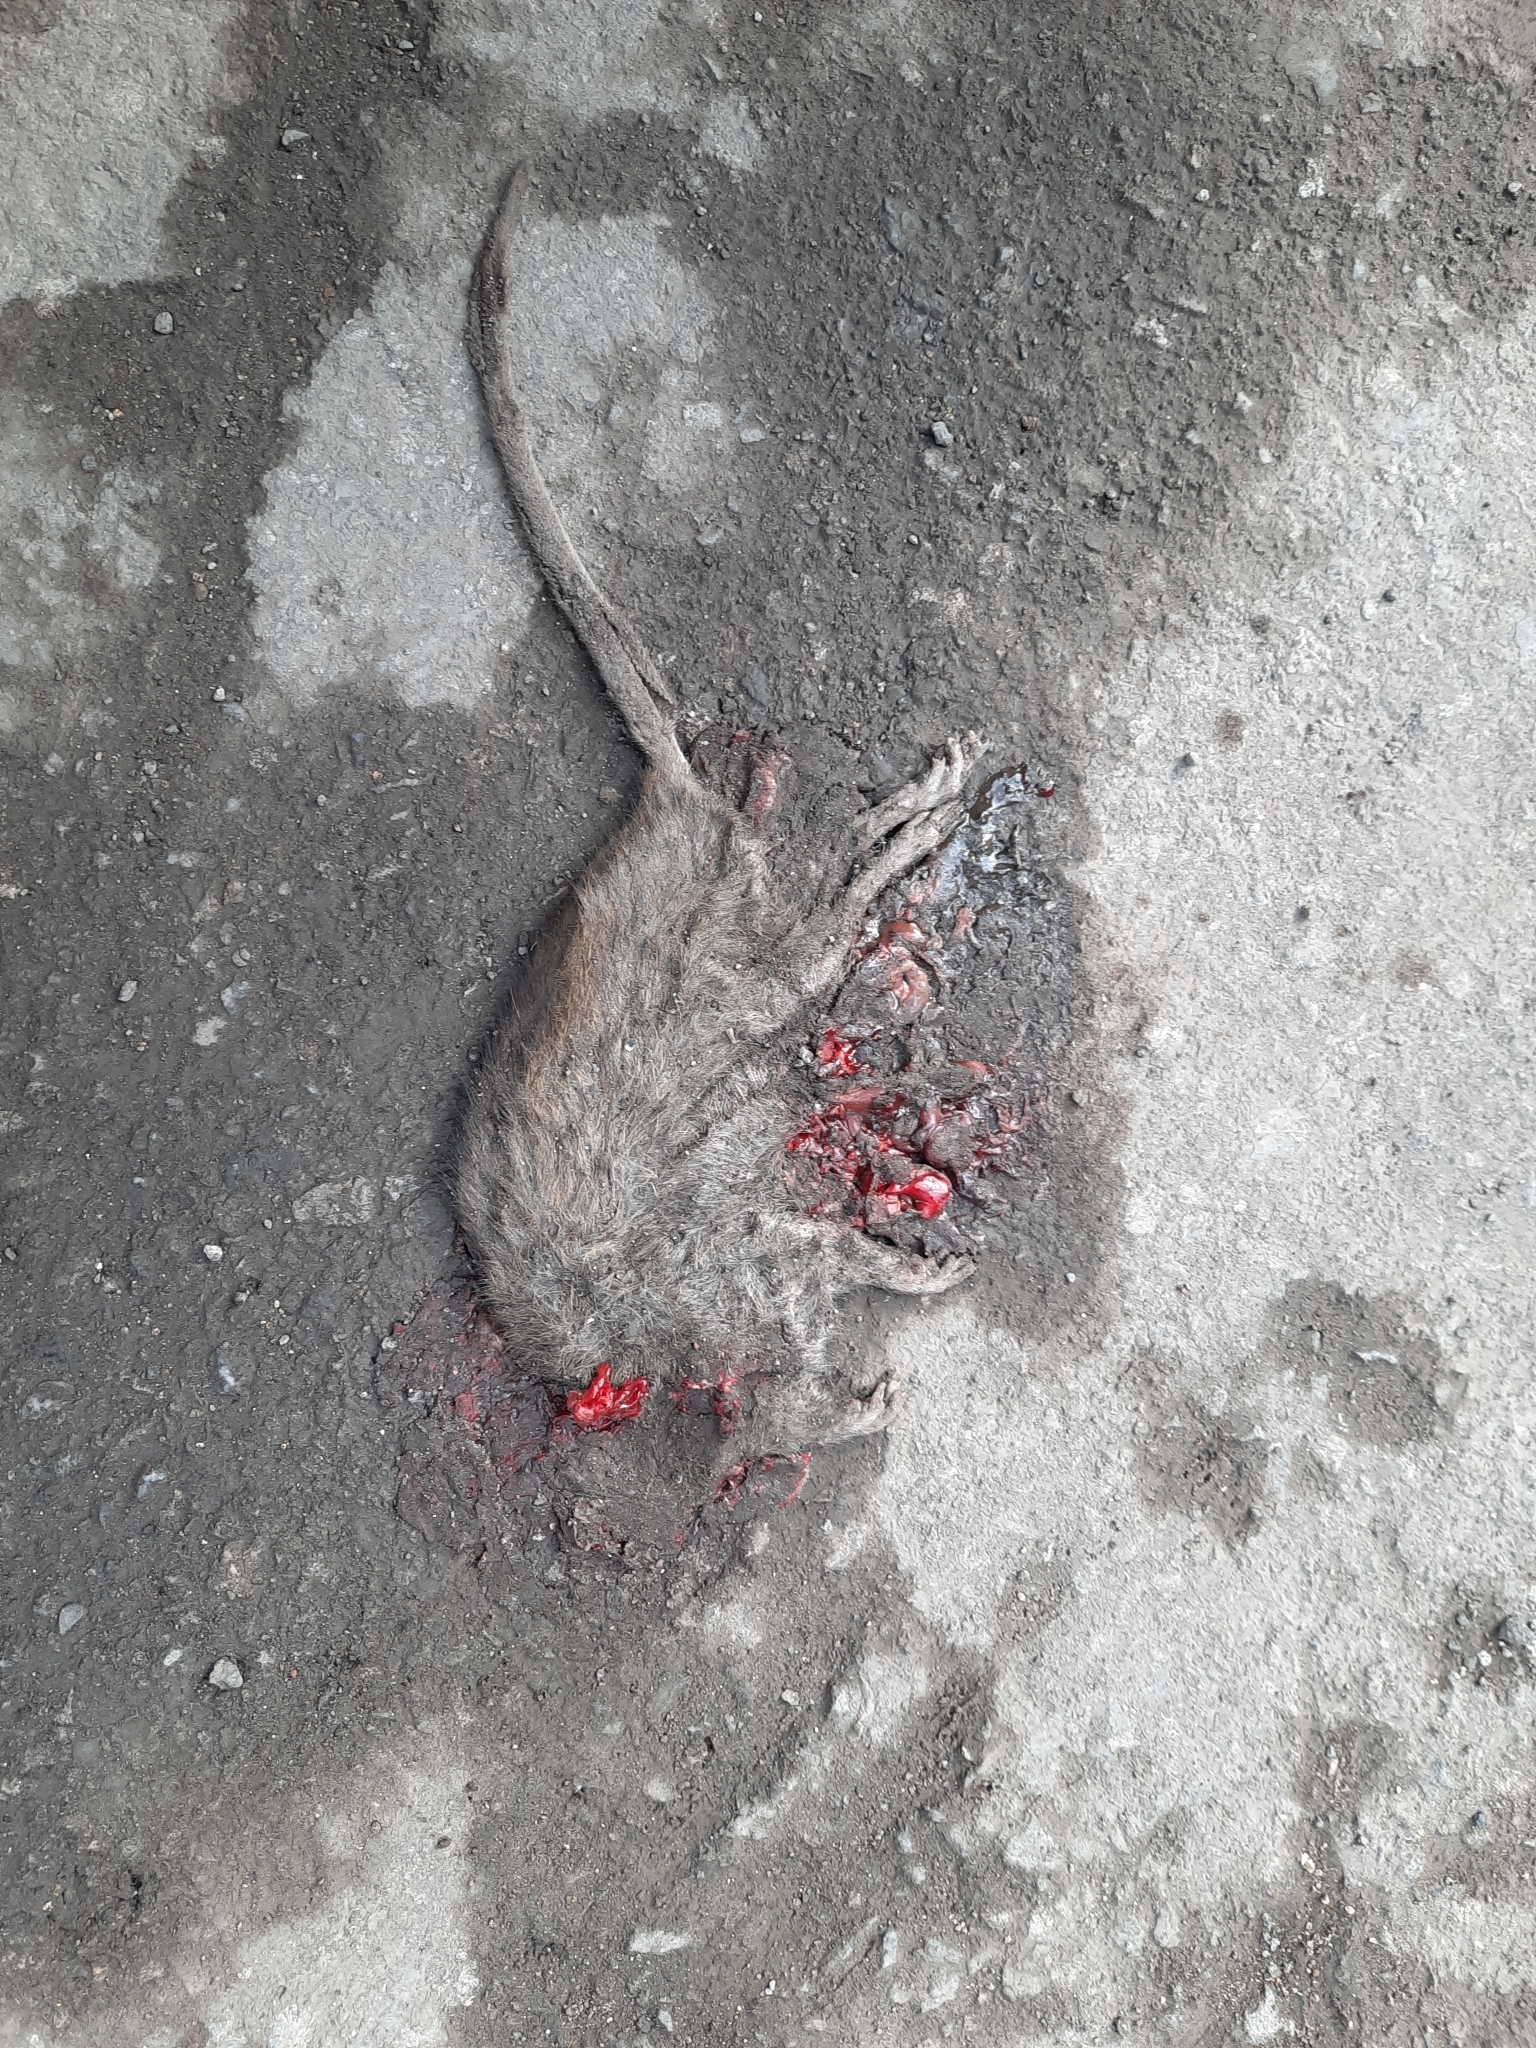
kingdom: Animalia
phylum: Chordata
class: Mammalia
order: Rodentia
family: Muridae
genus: Rattus
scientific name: Rattus norvegicus
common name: Brown rat
